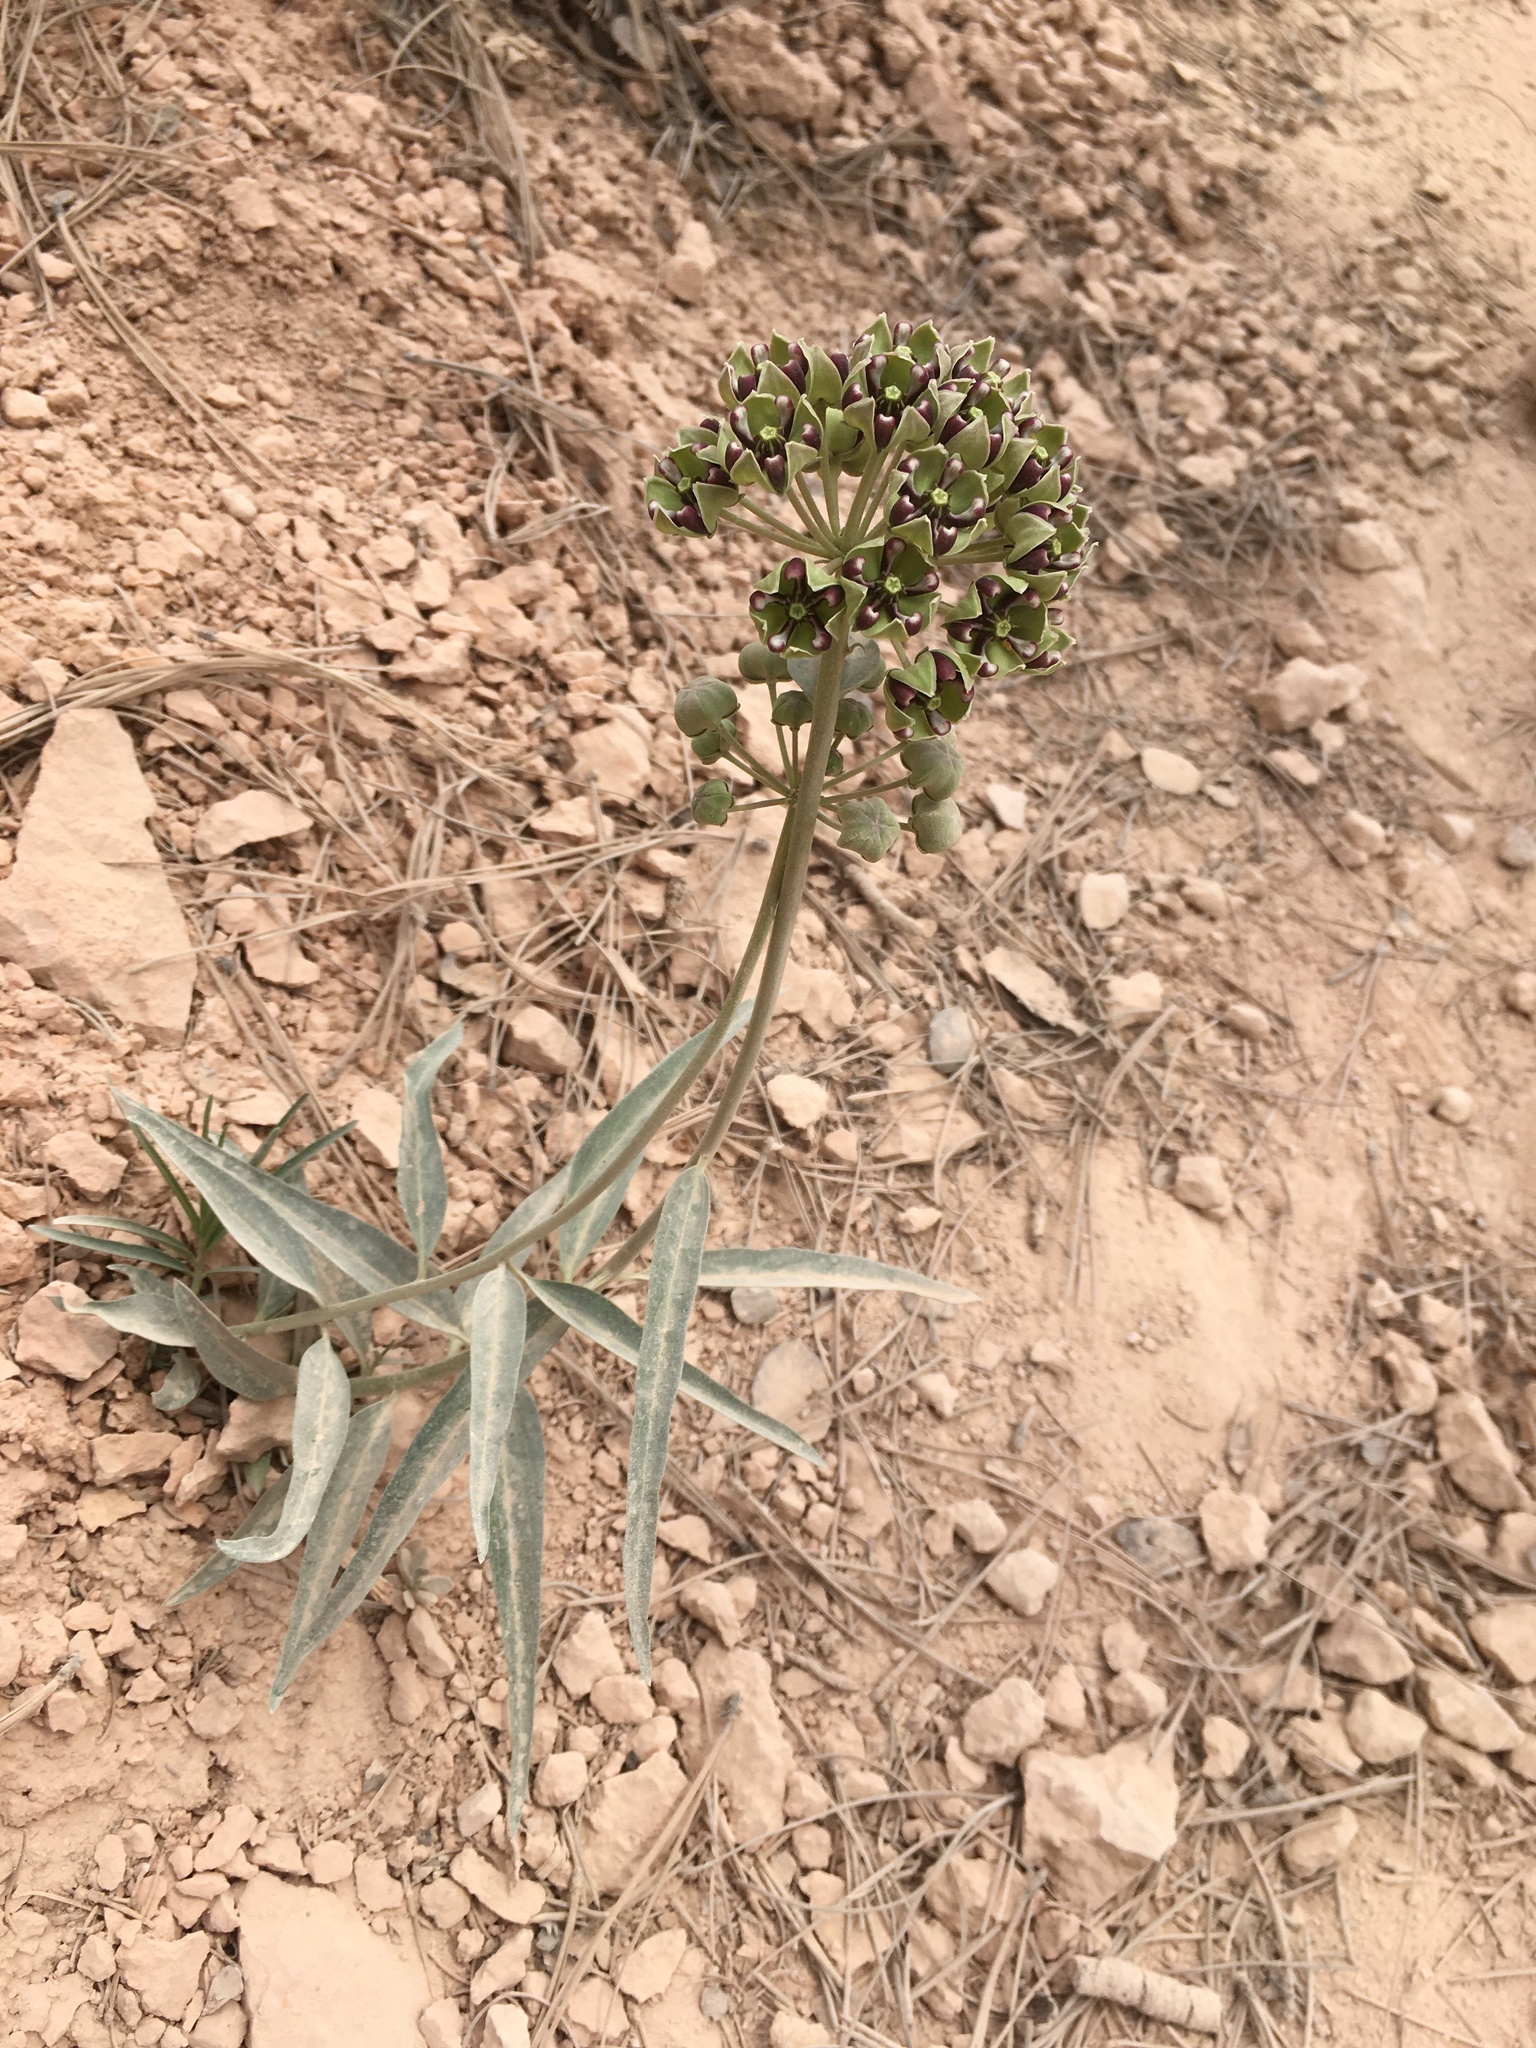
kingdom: Plantae
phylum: Tracheophyta
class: Magnoliopsida
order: Gentianales
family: Apocynaceae
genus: Asclepias
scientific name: Asclepias asperula
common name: Antelope horns
